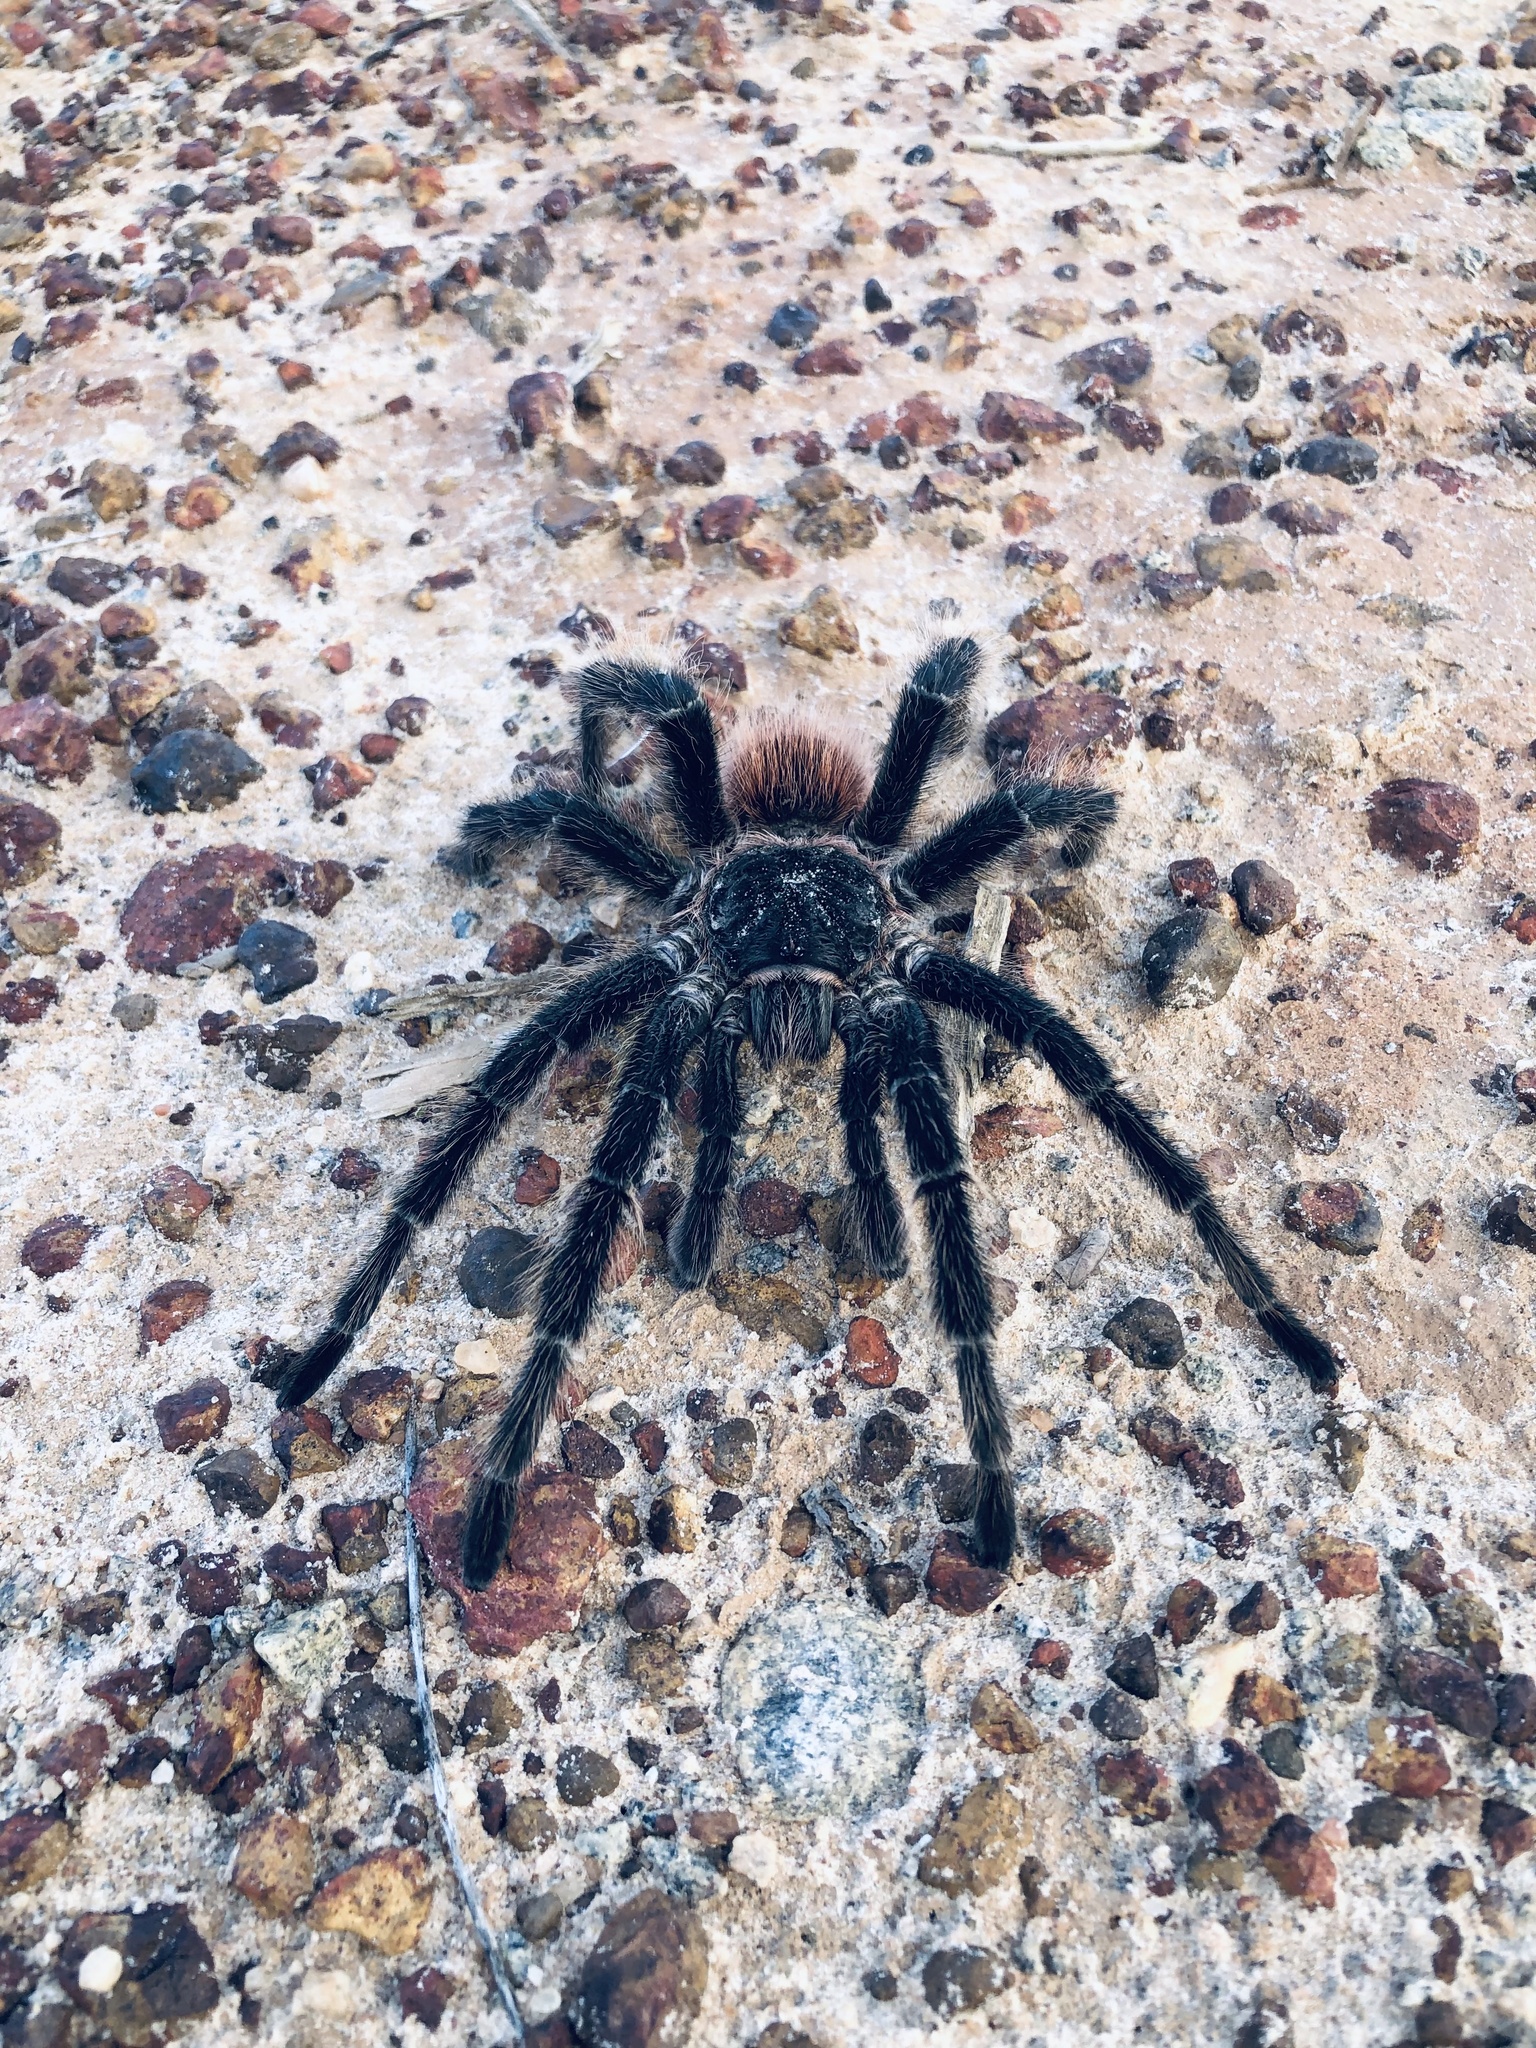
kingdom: Animalia
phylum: Arthropoda
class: Arachnida
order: Araneae
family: Theraphosidae
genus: Lasiodora
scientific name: Lasiodora parahybana
